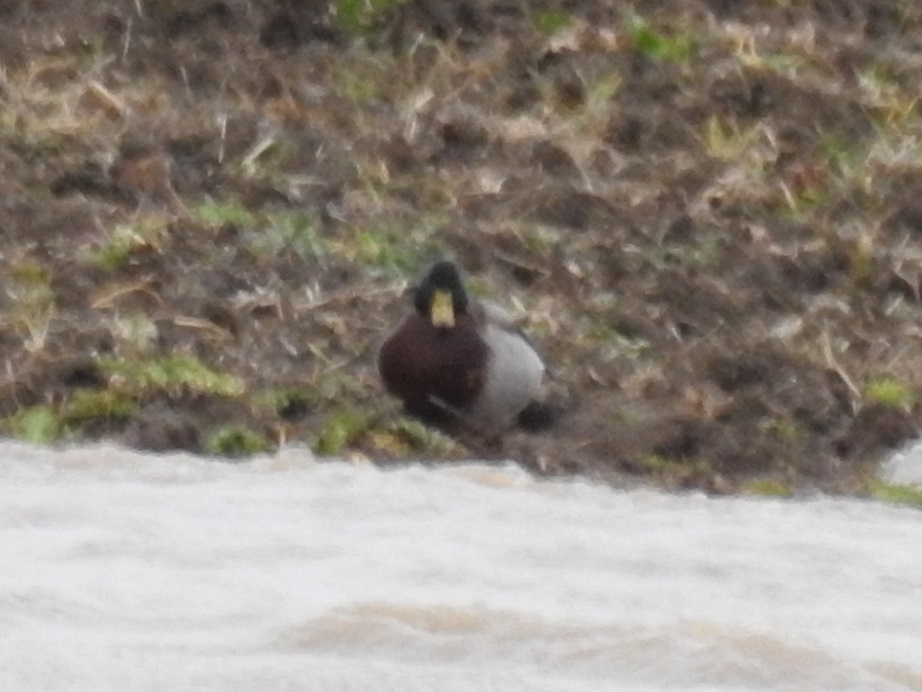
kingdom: Animalia
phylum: Chordata
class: Aves
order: Anseriformes
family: Anatidae
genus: Anas
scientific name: Anas platyrhynchos
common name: Mallard
